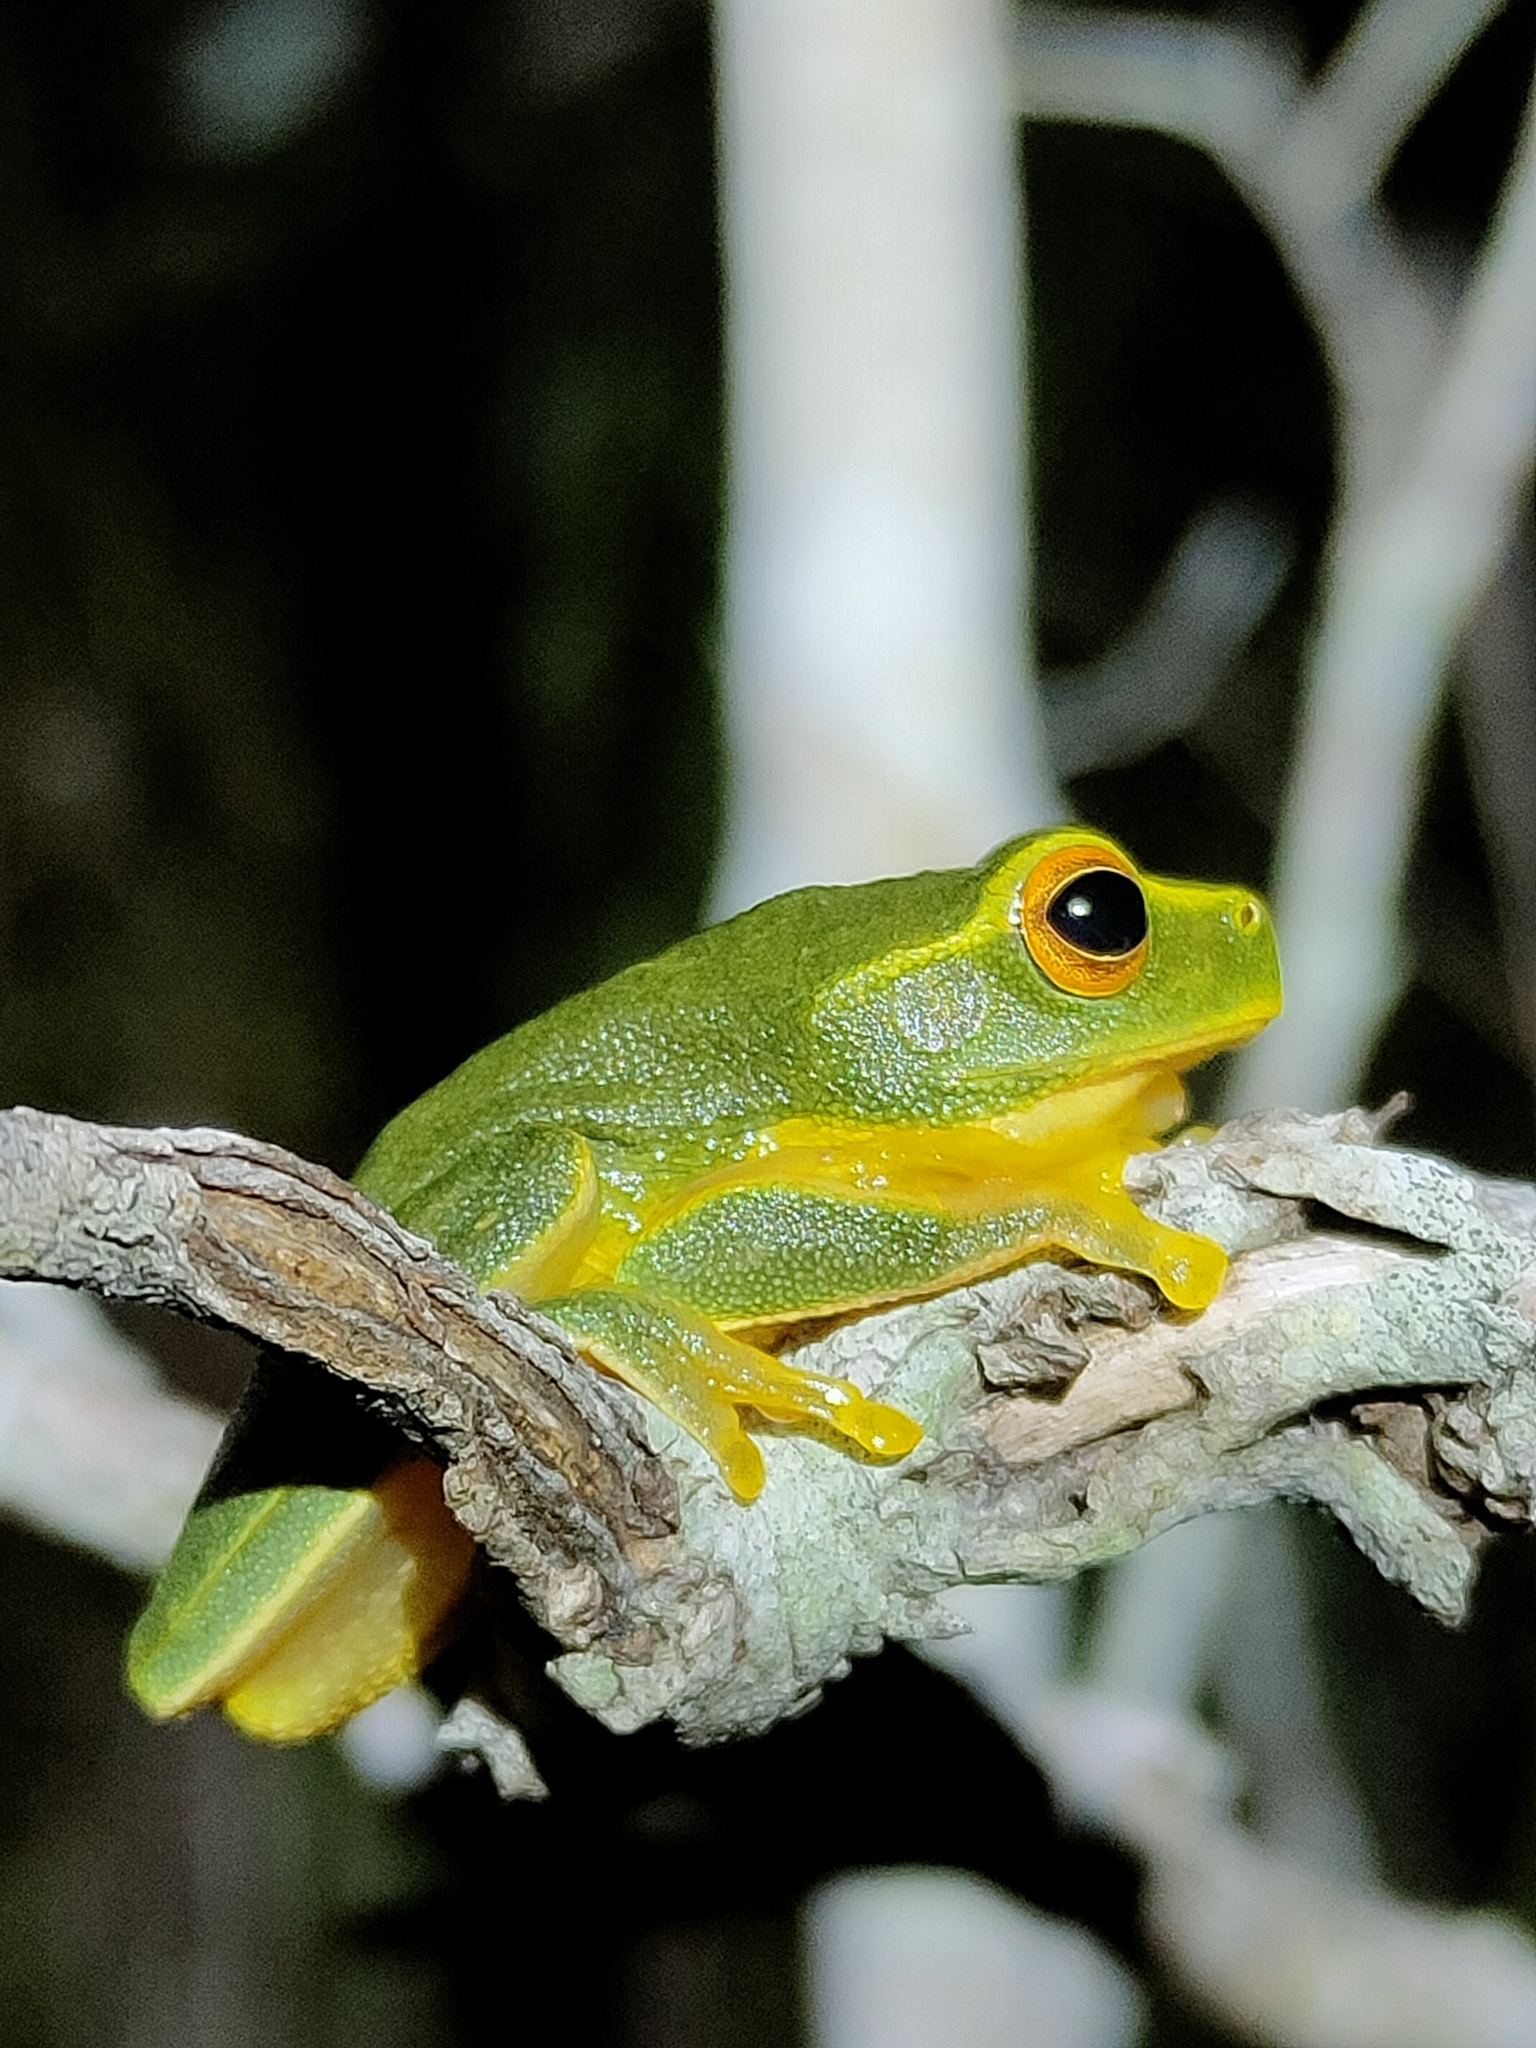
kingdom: Animalia
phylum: Chordata
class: Amphibia
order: Anura
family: Pelodryadidae
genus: Ranoidea
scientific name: Ranoidea gracilenta
